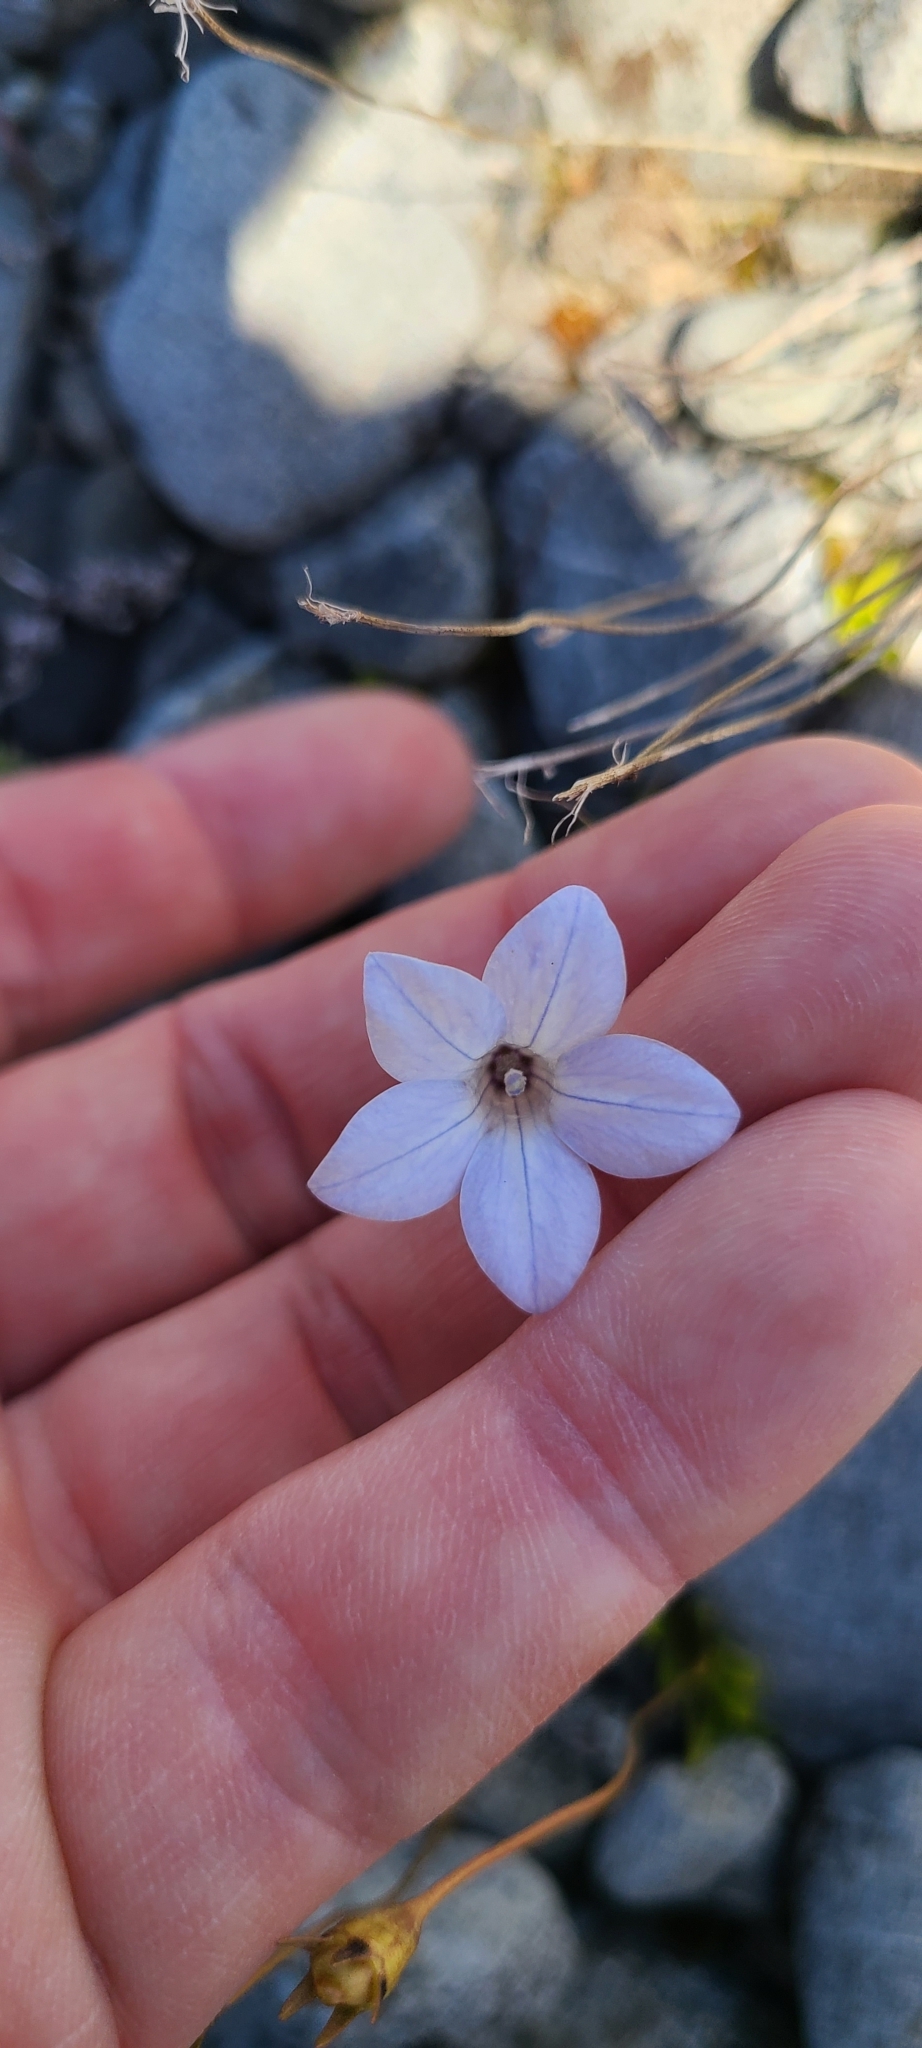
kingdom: Plantae
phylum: Tracheophyta
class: Magnoliopsida
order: Asterales
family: Campanulaceae
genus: Wahlenbergia
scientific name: Wahlenbergia albomarginata
